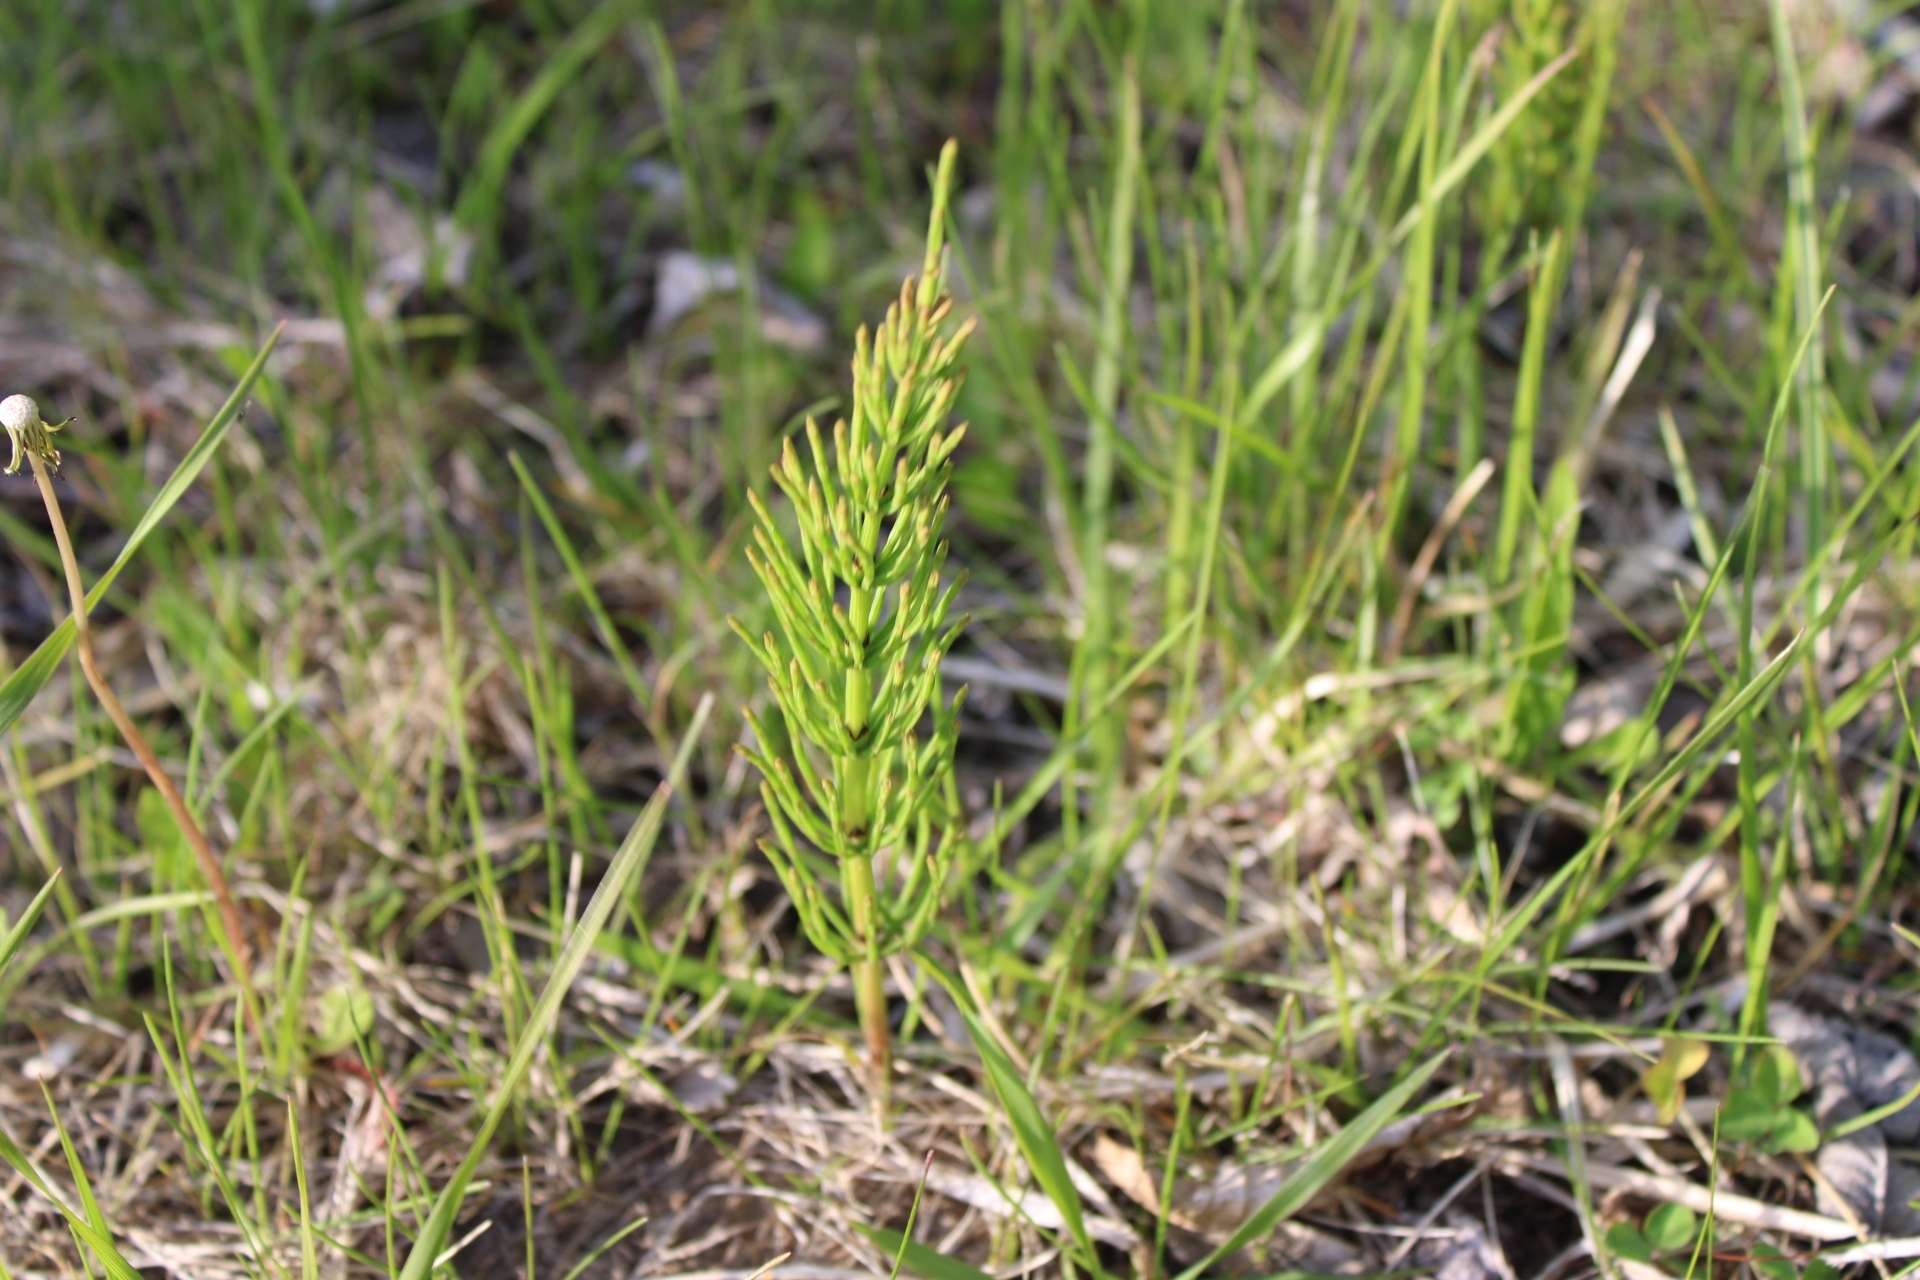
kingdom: Plantae
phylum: Tracheophyta
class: Polypodiopsida
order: Equisetales
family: Equisetaceae
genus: Equisetum
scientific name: Equisetum arvense
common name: Field horsetail
